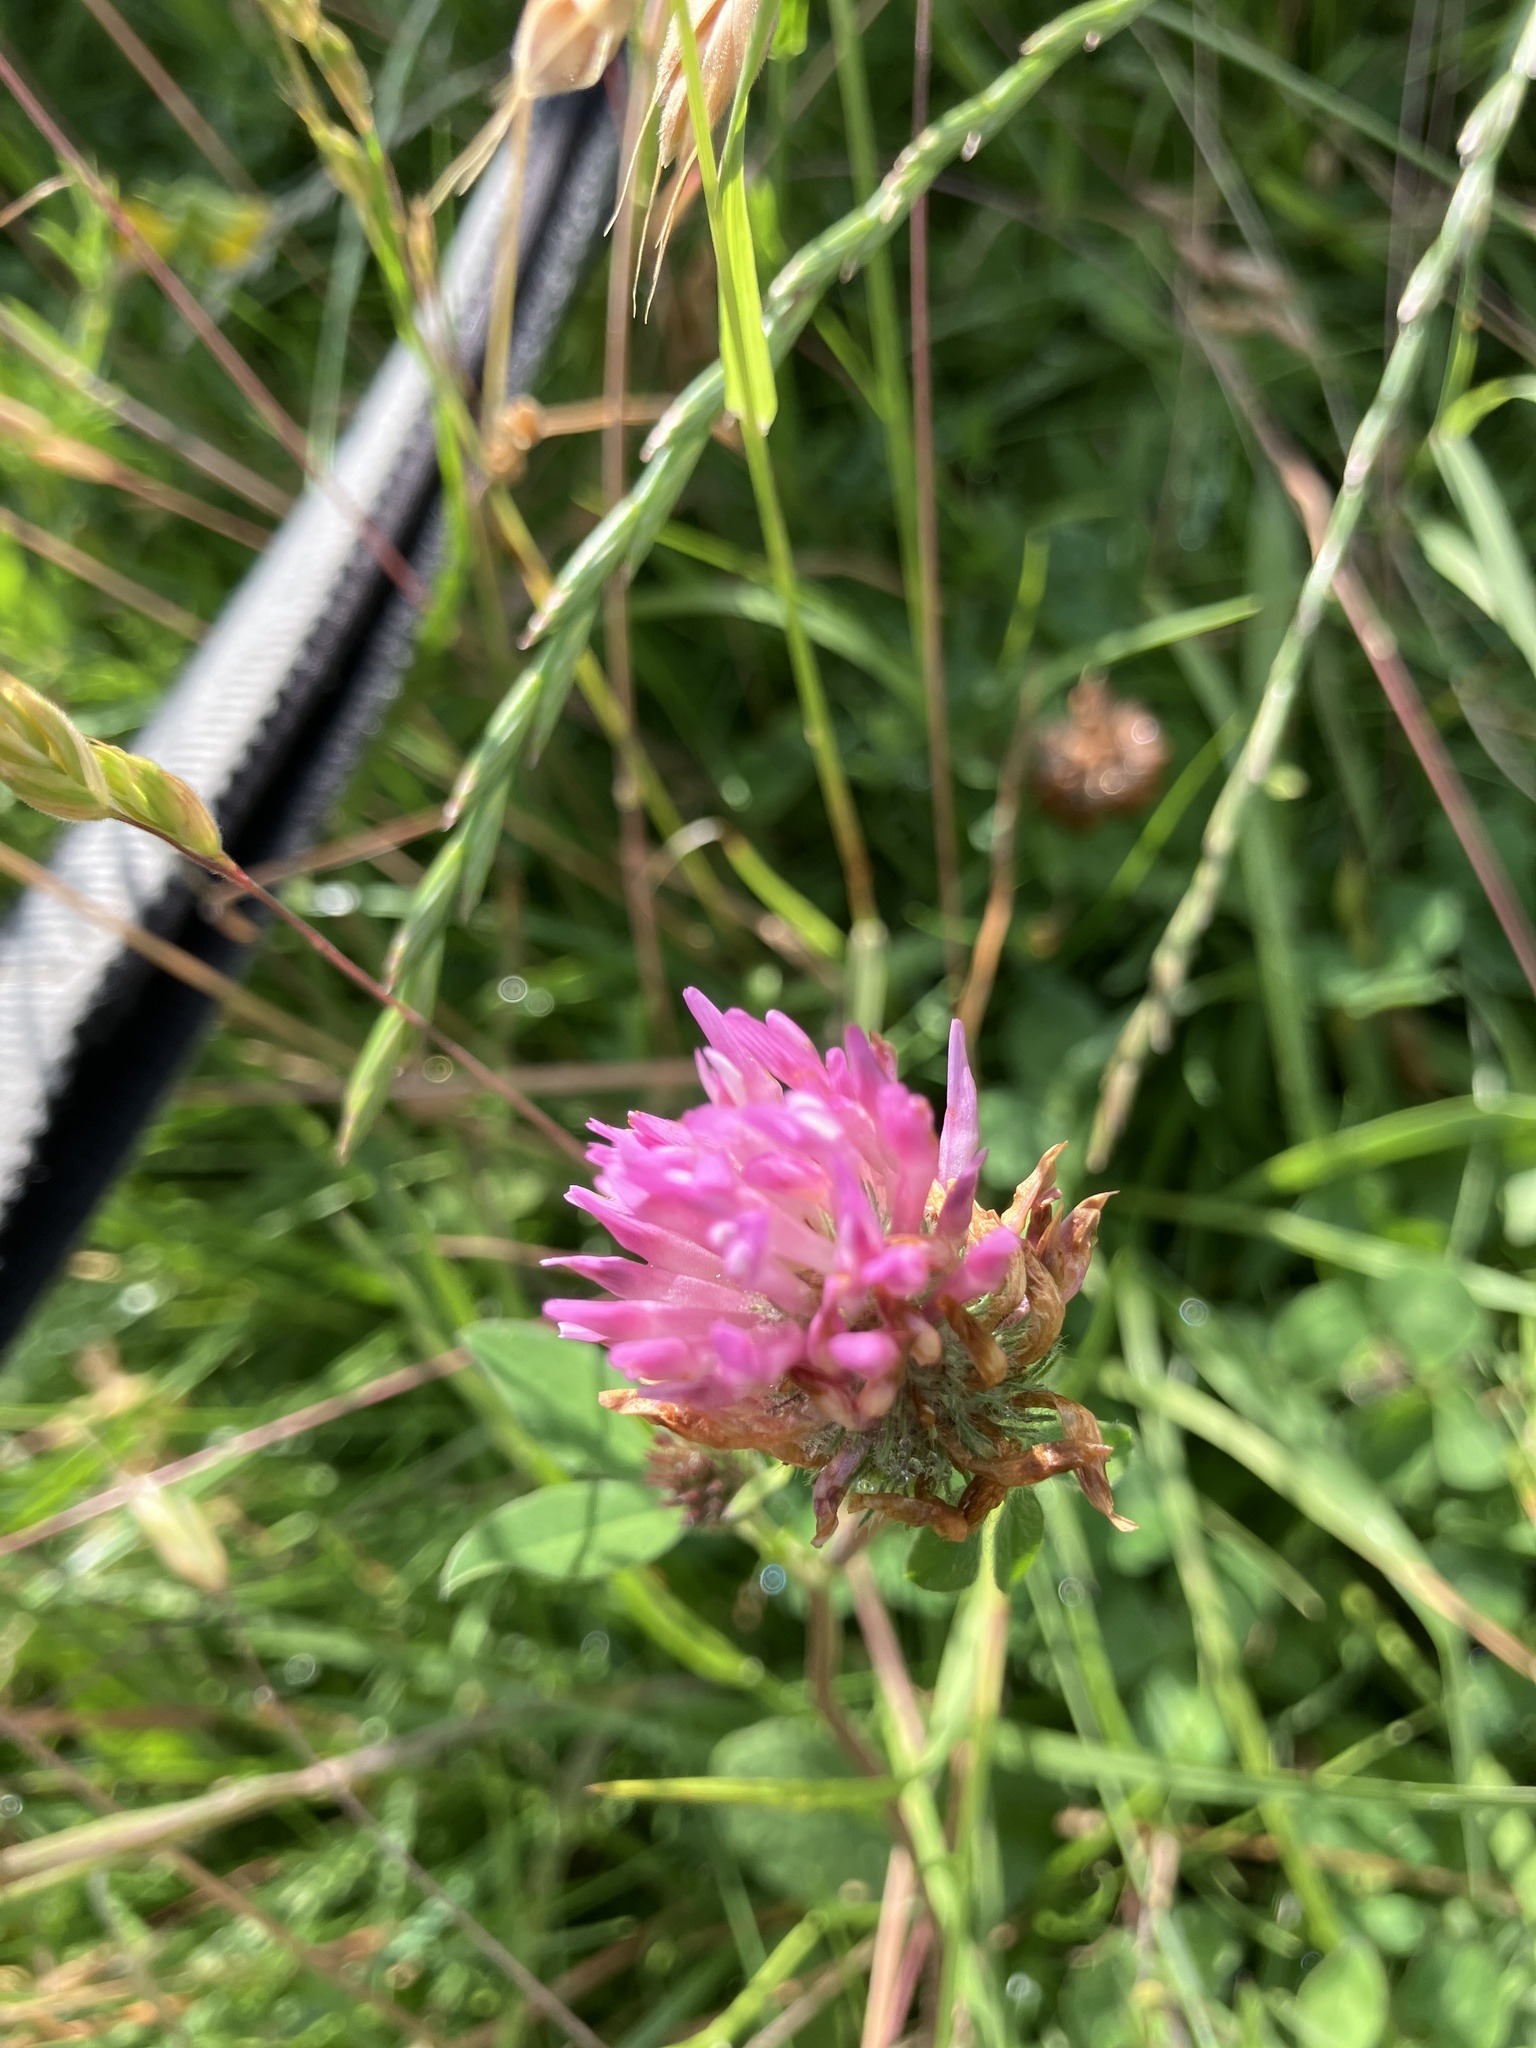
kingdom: Plantae
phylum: Tracheophyta
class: Magnoliopsida
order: Fabales
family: Fabaceae
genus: Trifolium
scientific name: Trifolium pratense
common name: Red clover
